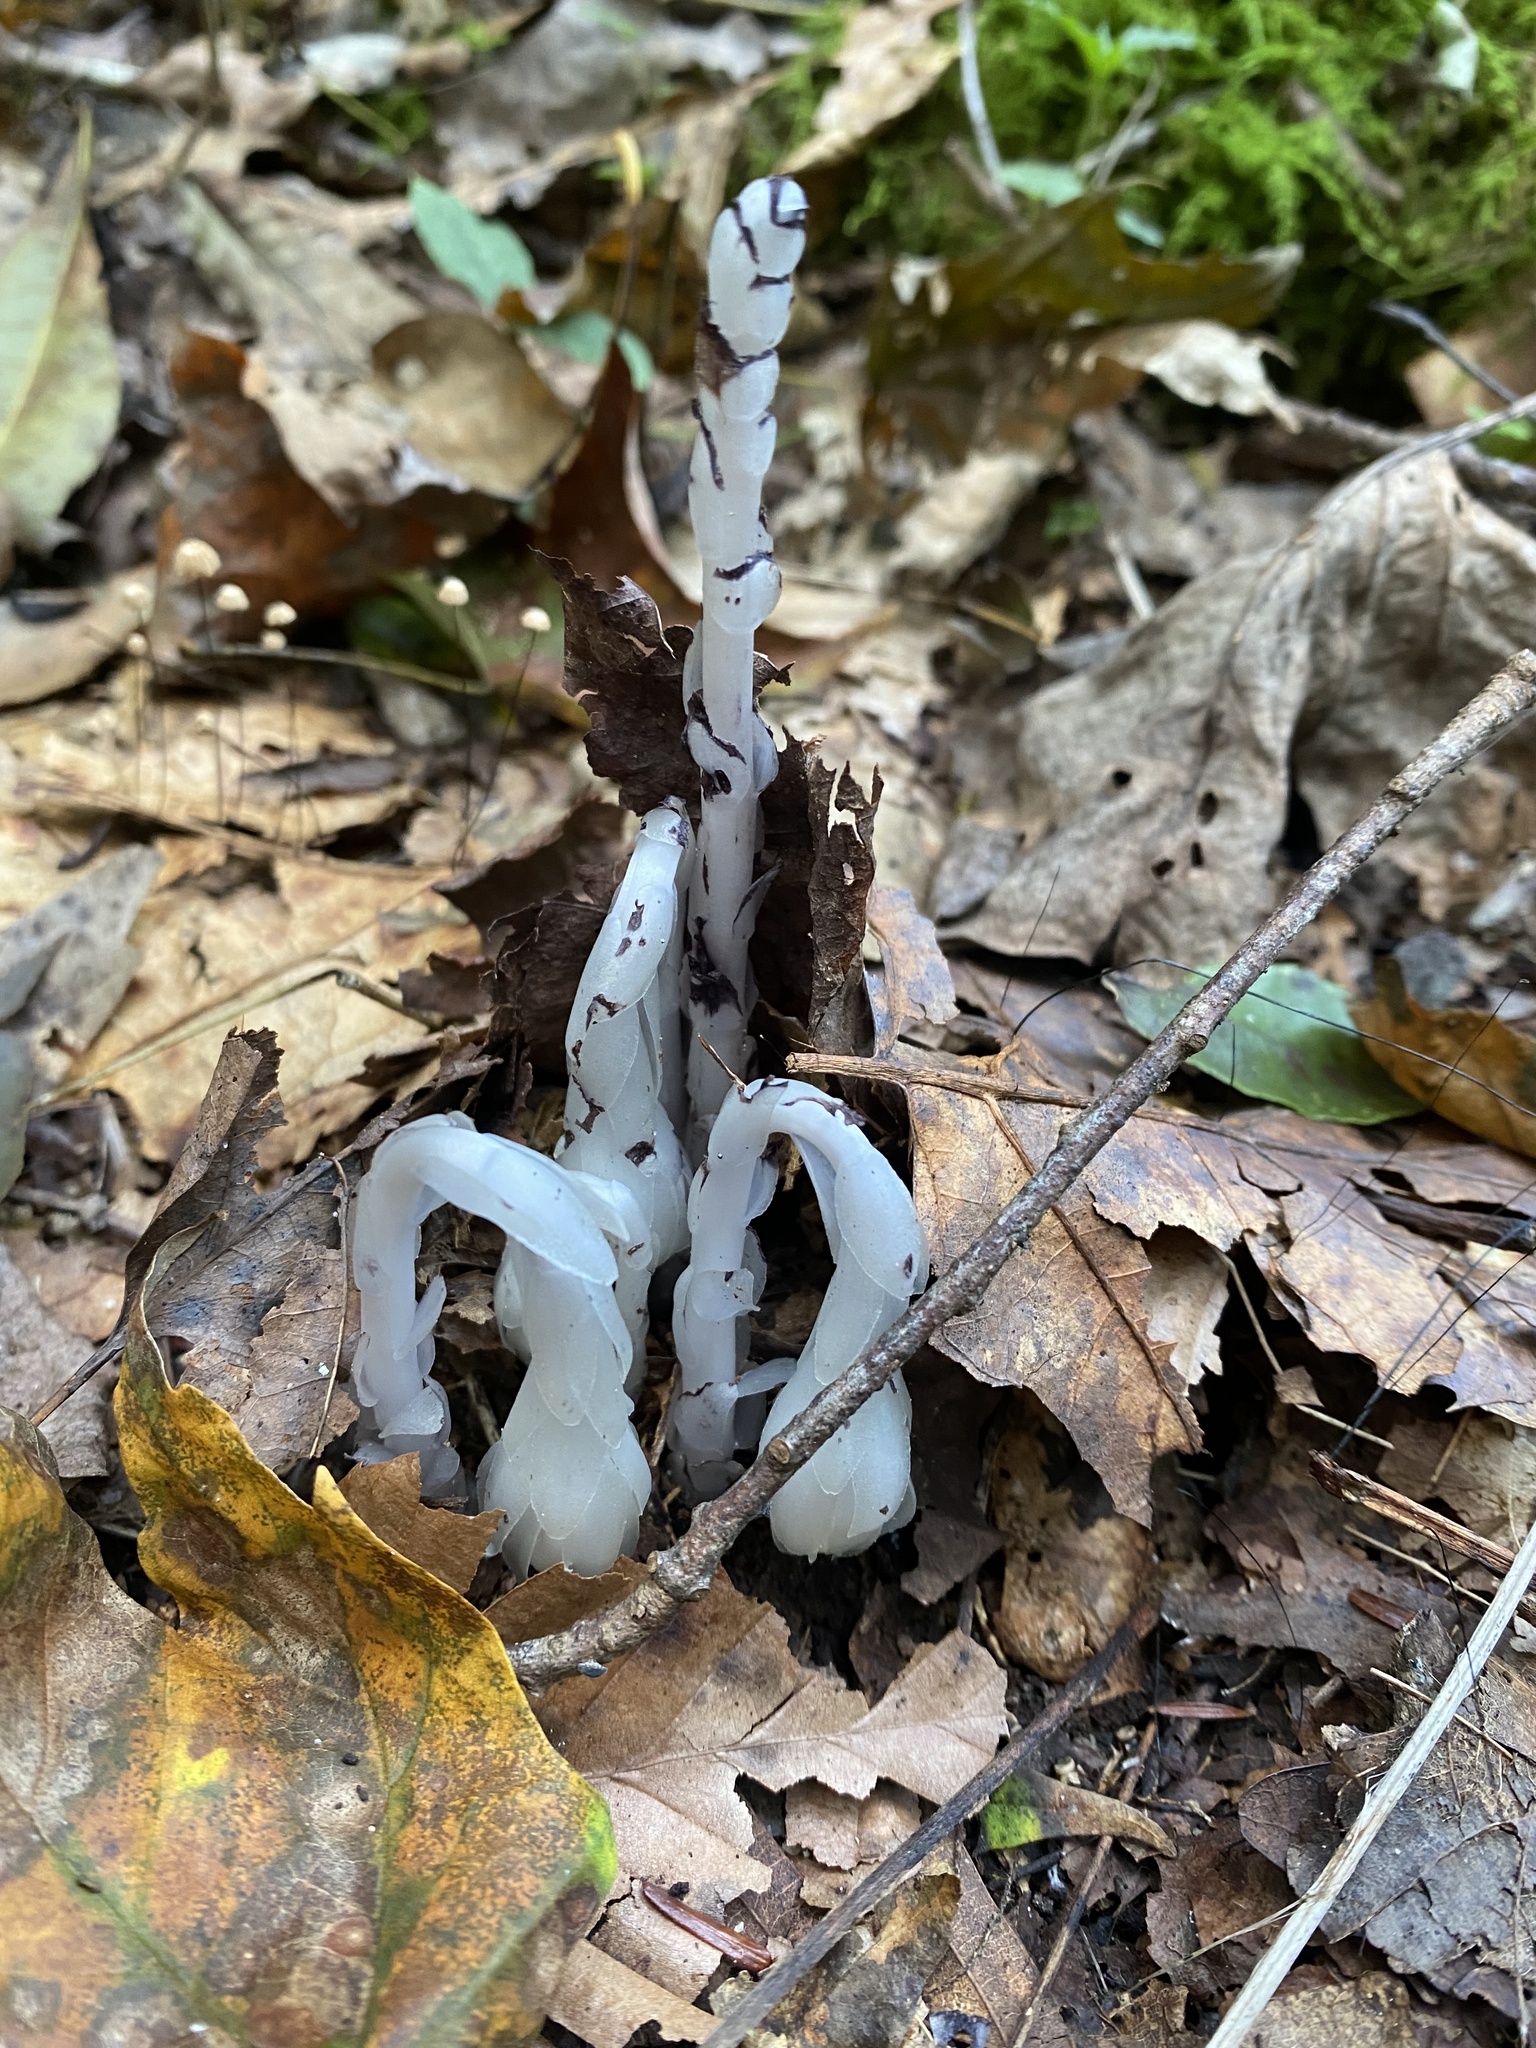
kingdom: Plantae
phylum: Tracheophyta
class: Magnoliopsida
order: Ericales
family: Ericaceae
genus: Monotropa
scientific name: Monotropa uniflora
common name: Convulsion root
